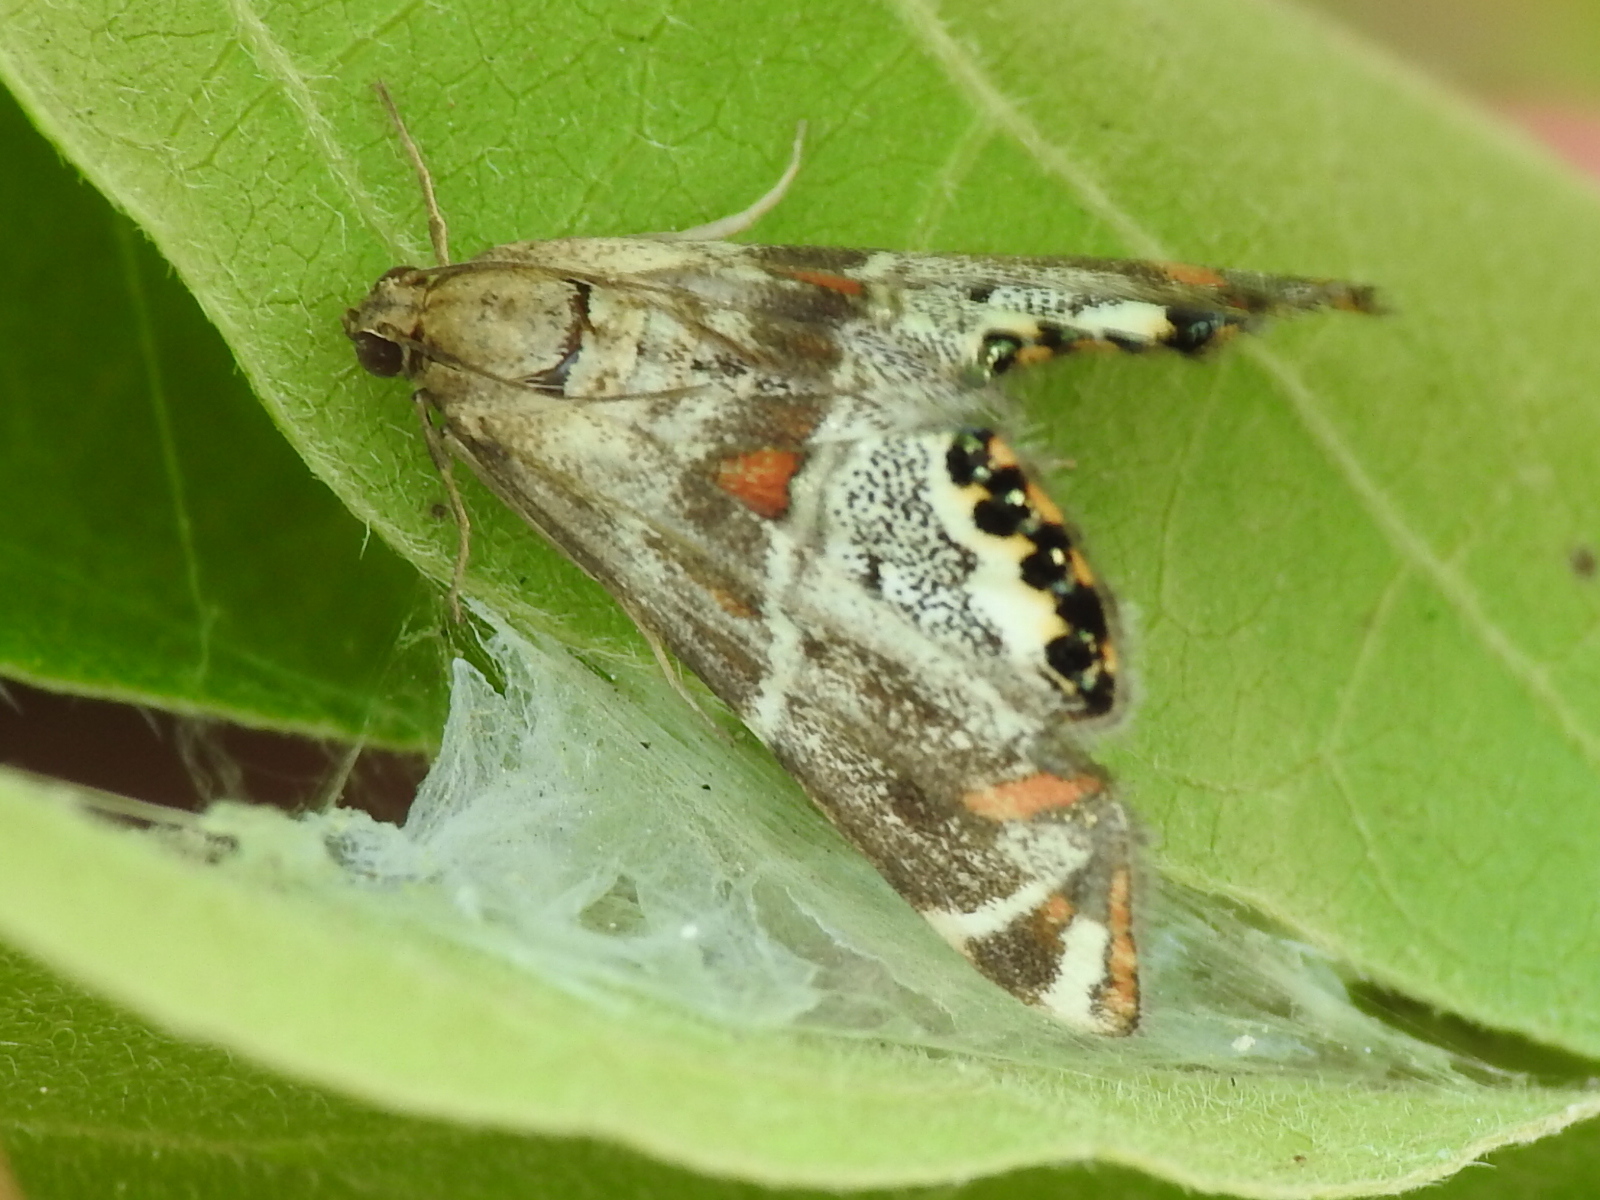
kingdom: Animalia
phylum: Arthropoda
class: Insecta
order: Lepidoptera
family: Crambidae
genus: Petrophila
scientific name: Petrophila jaliscalis
